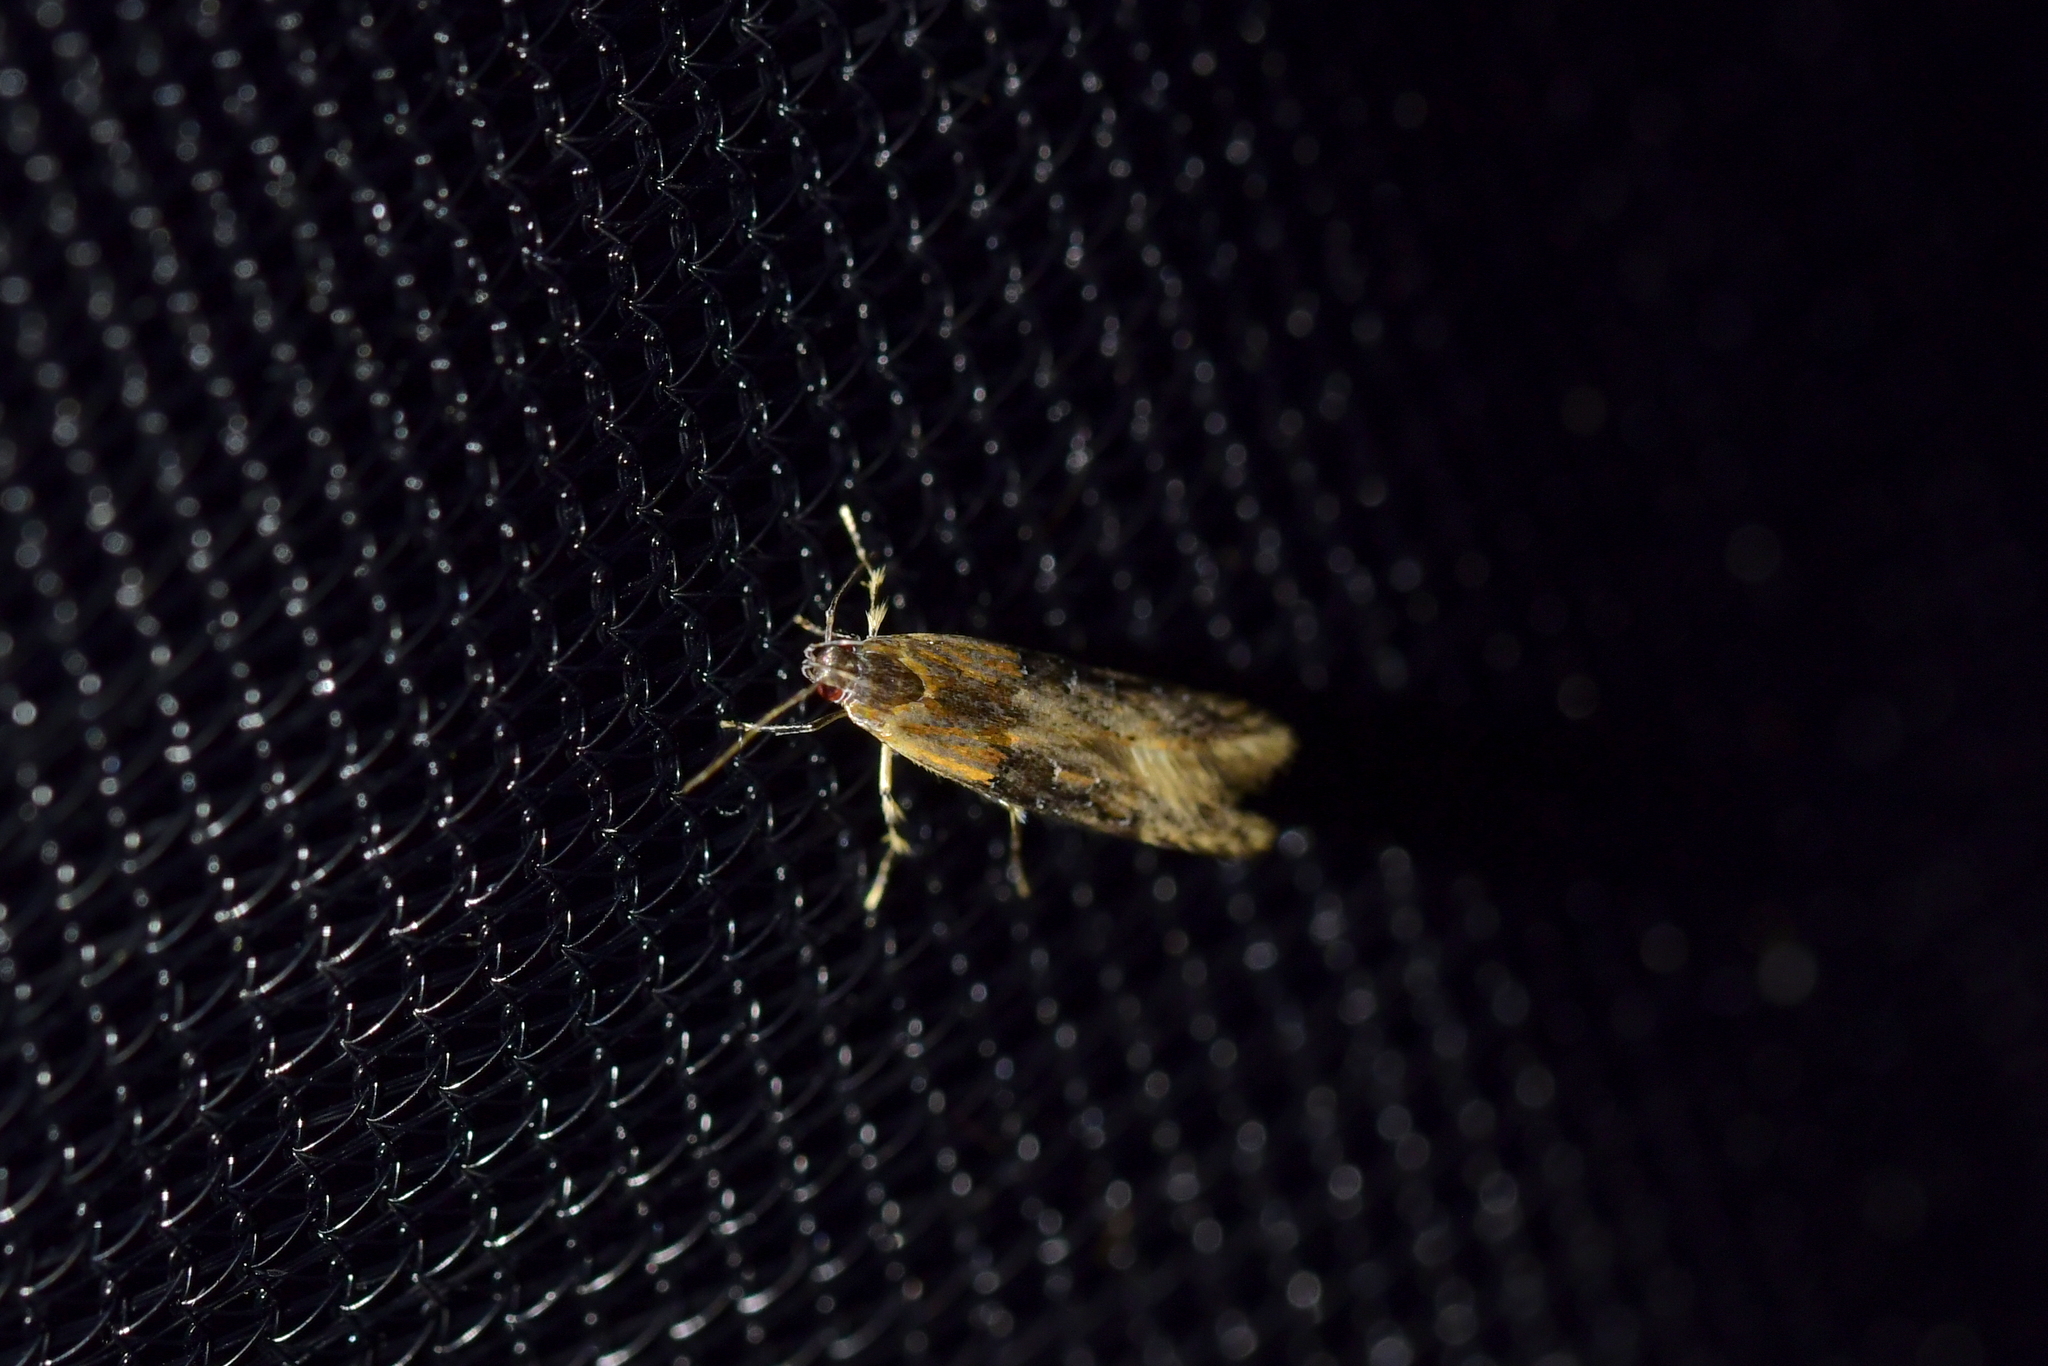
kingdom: Animalia
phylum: Arthropoda
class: Insecta
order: Lepidoptera
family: Elachistidae
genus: Circoxena
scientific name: Circoxena ditrocha
